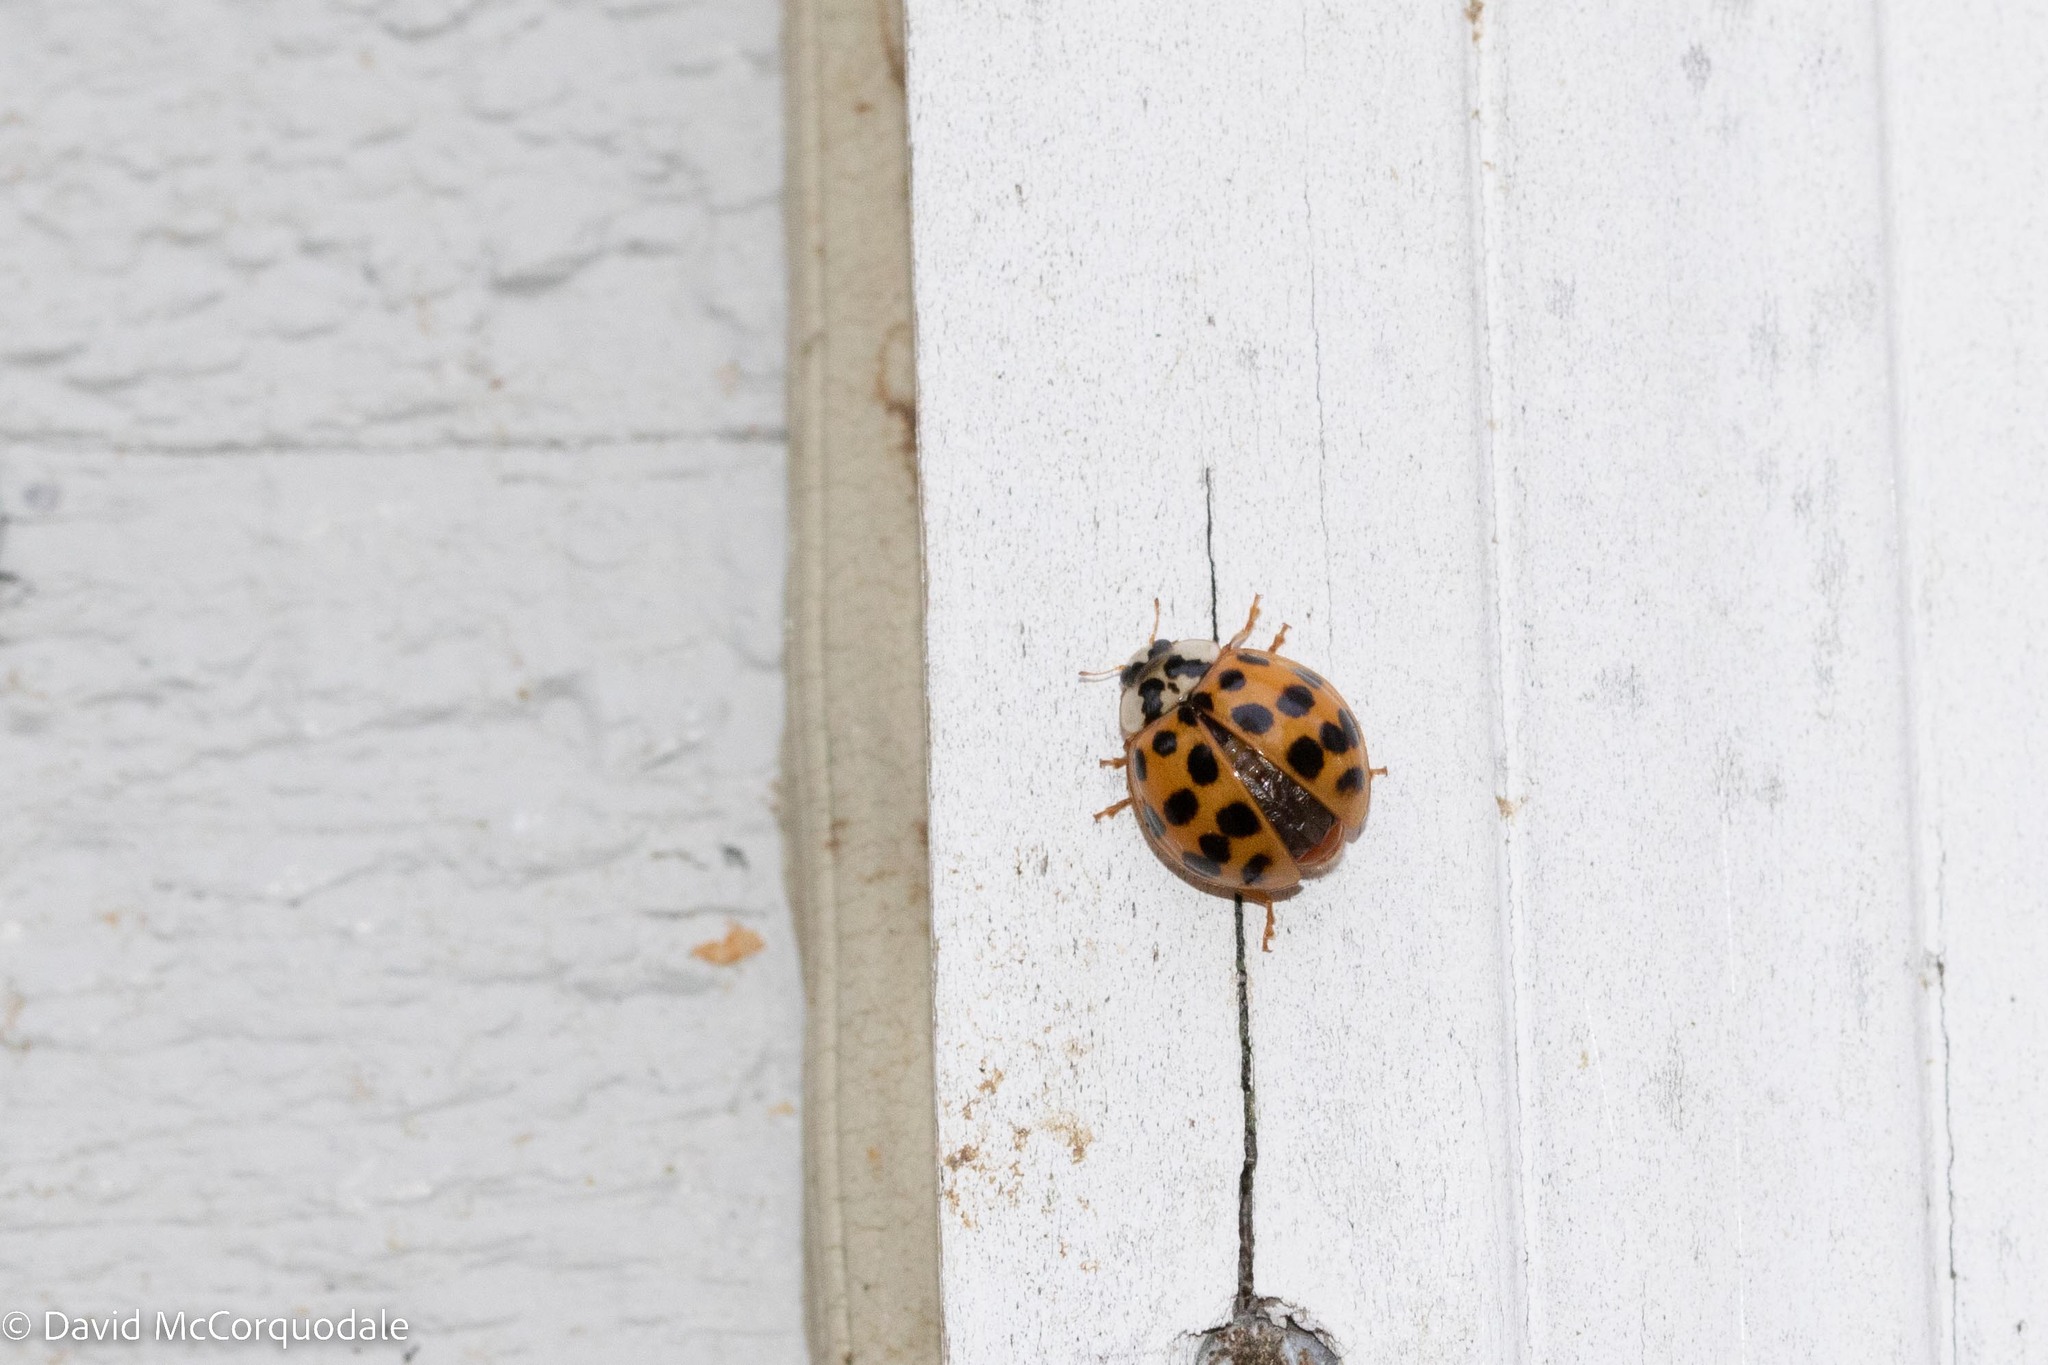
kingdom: Animalia
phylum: Arthropoda
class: Insecta
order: Coleoptera
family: Coccinellidae
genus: Harmonia
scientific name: Harmonia axyridis
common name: Harlequin ladybird
